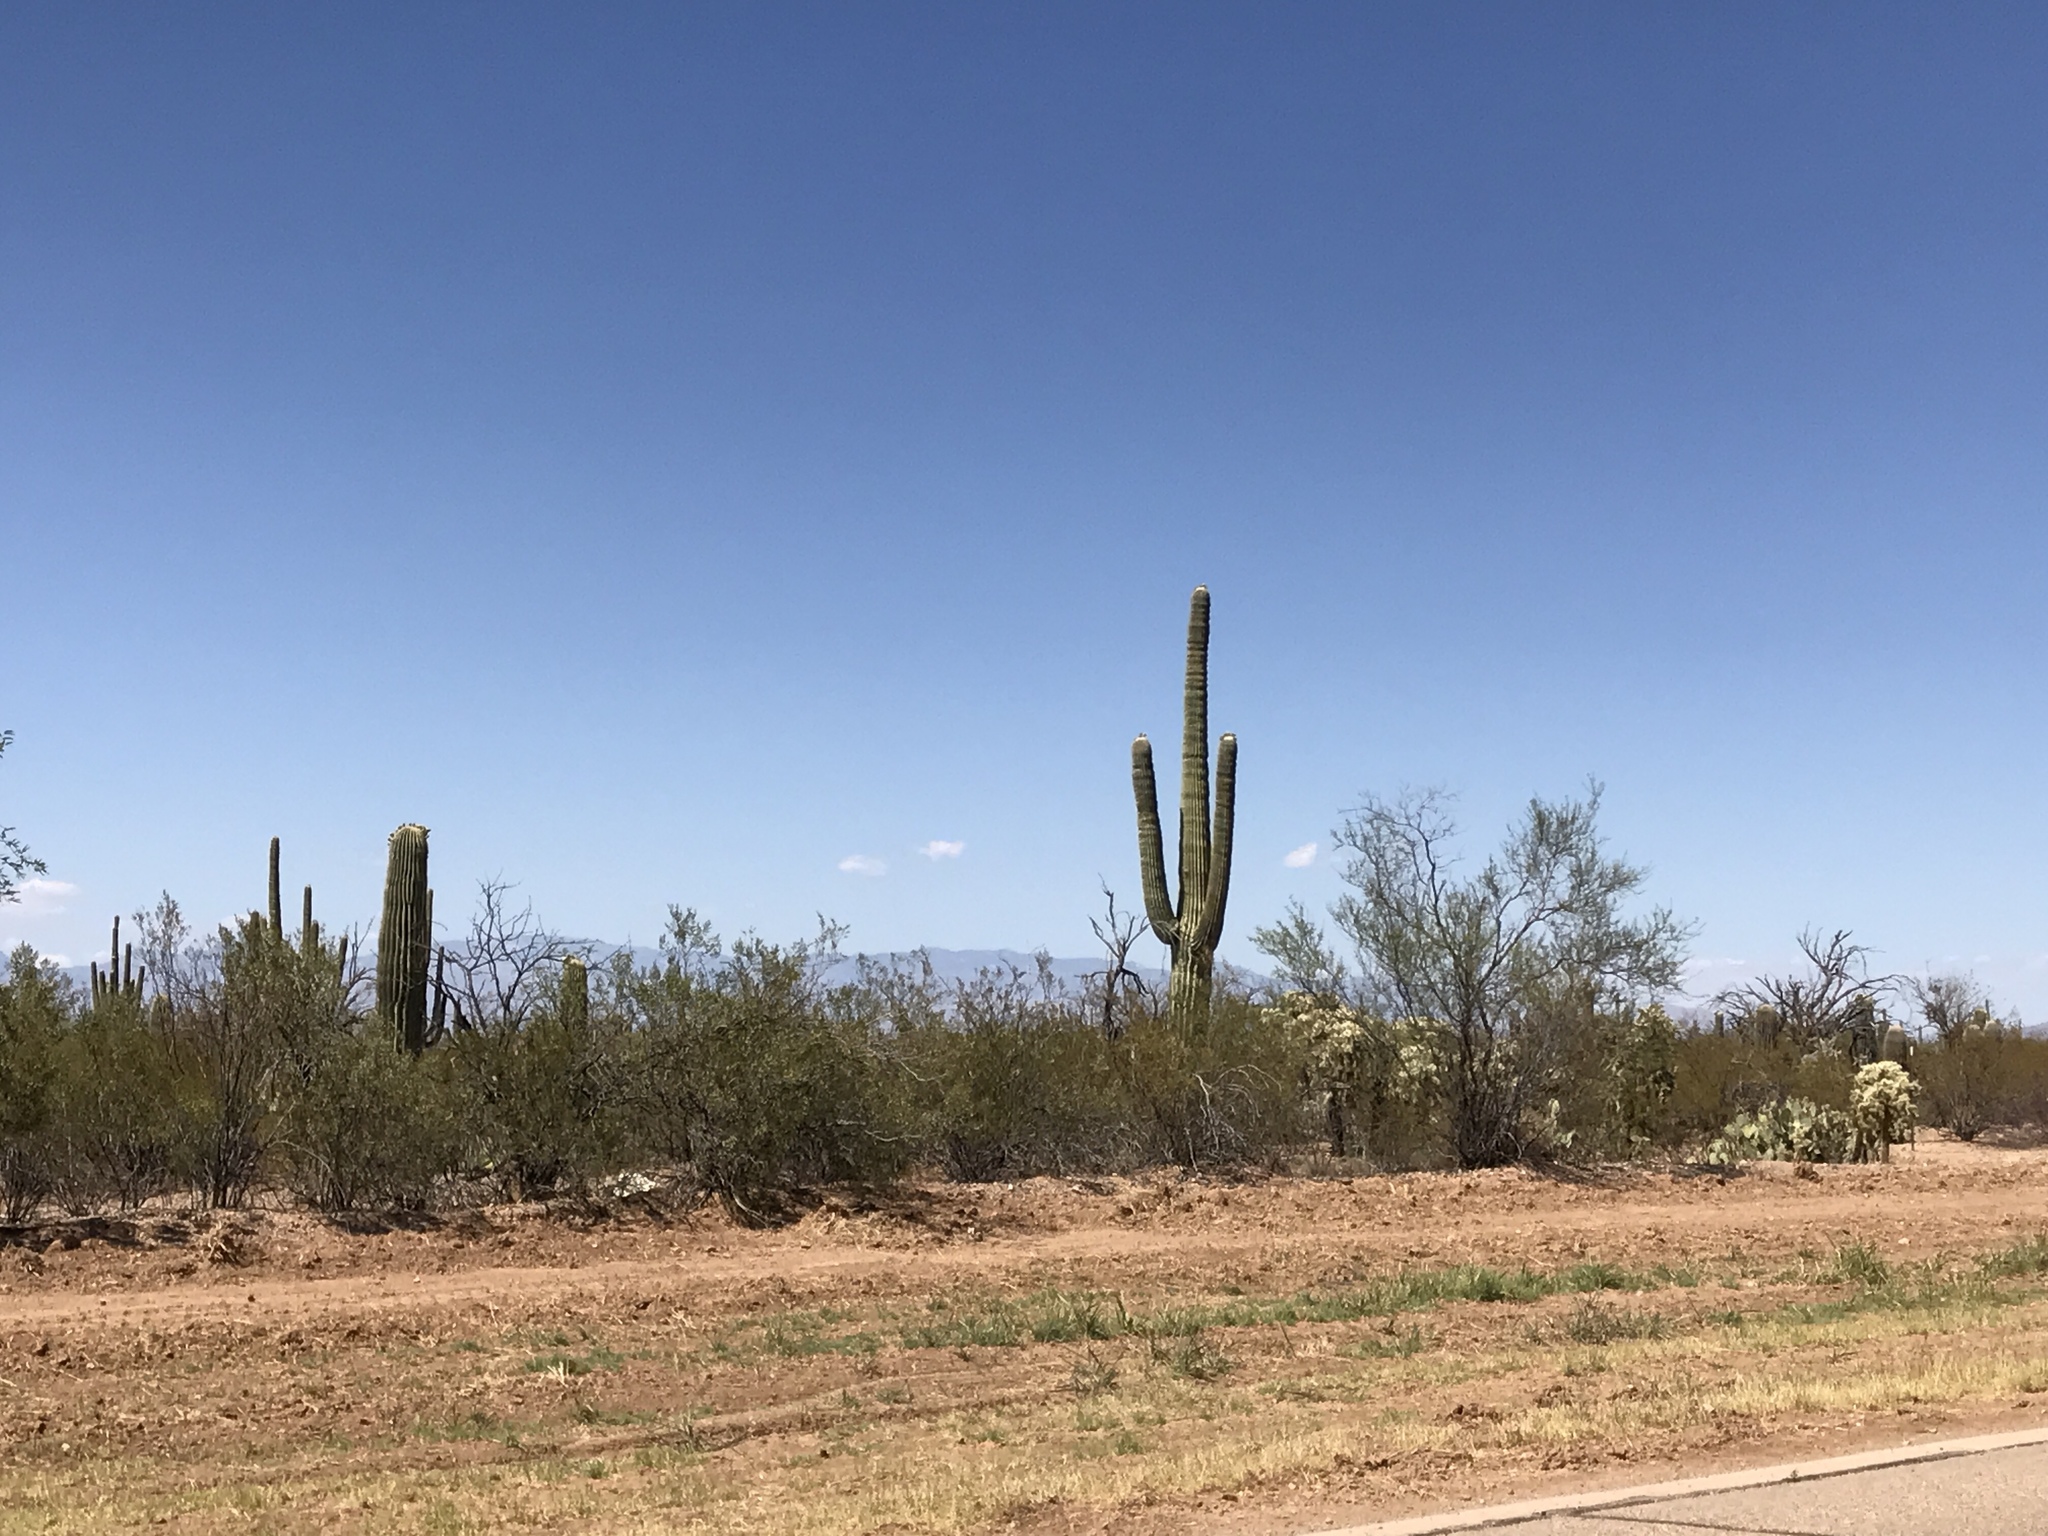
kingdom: Plantae
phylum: Tracheophyta
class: Magnoliopsida
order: Caryophyllales
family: Cactaceae
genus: Carnegiea
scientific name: Carnegiea gigantea
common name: Saguaro
